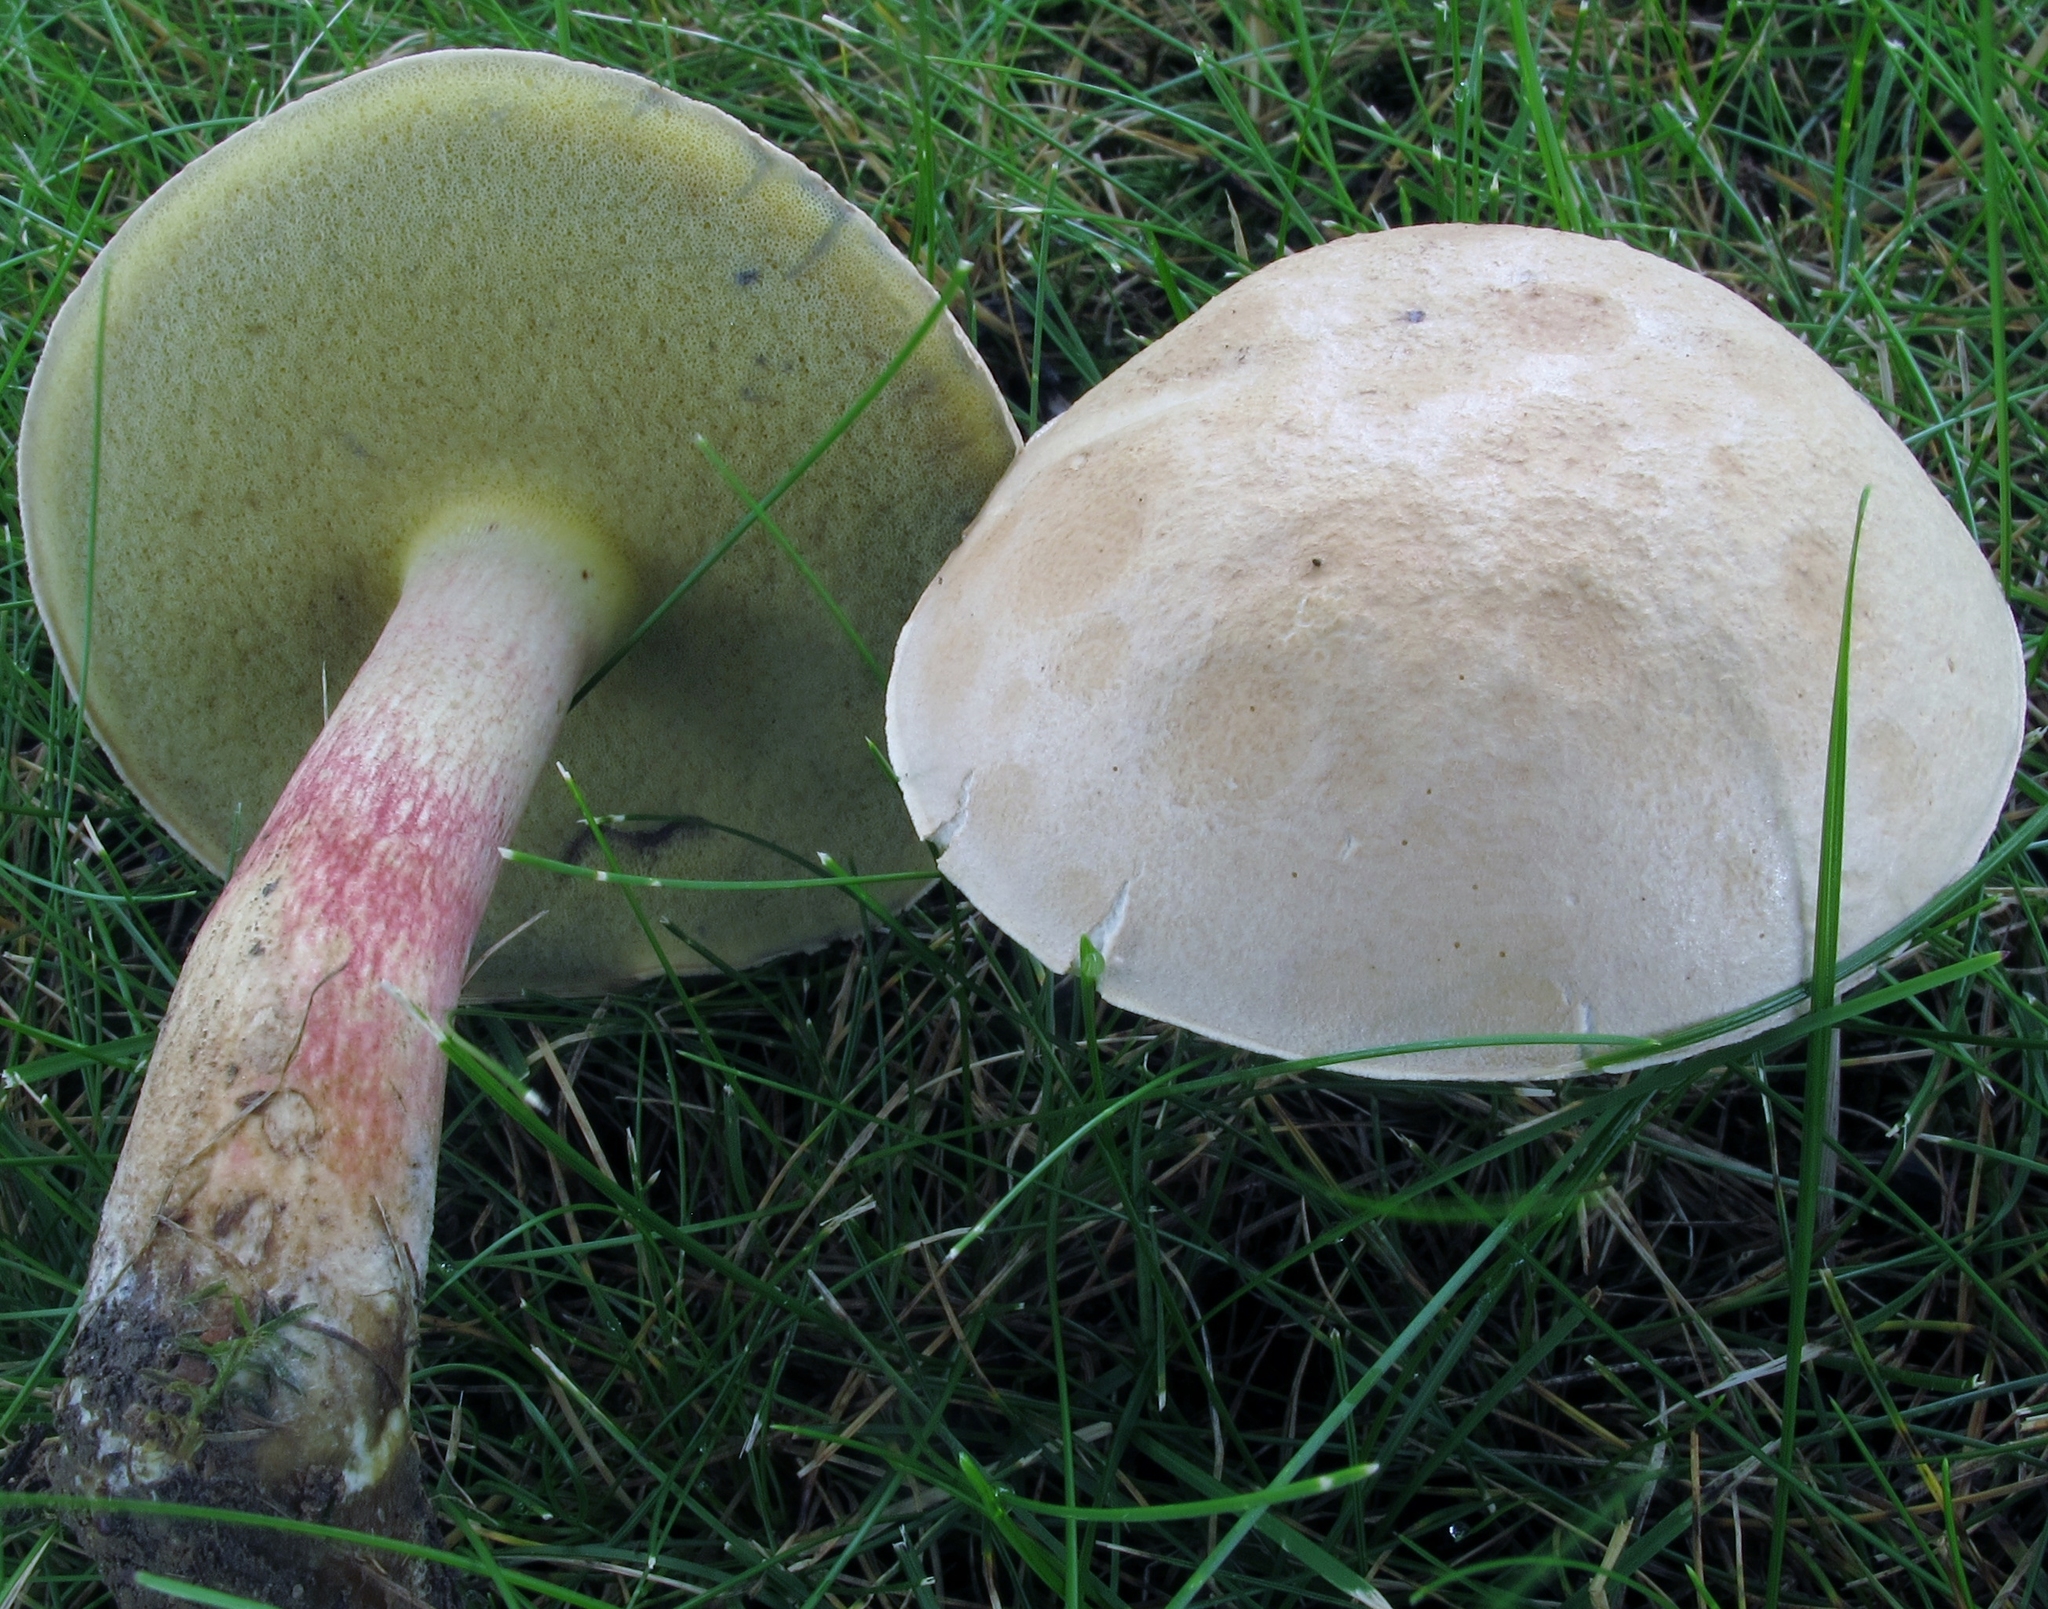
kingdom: Fungi
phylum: Basidiomycota
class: Agaricomycetes
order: Boletales
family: Boletaceae
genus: Caloboletus
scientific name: Caloboletus inedulis
